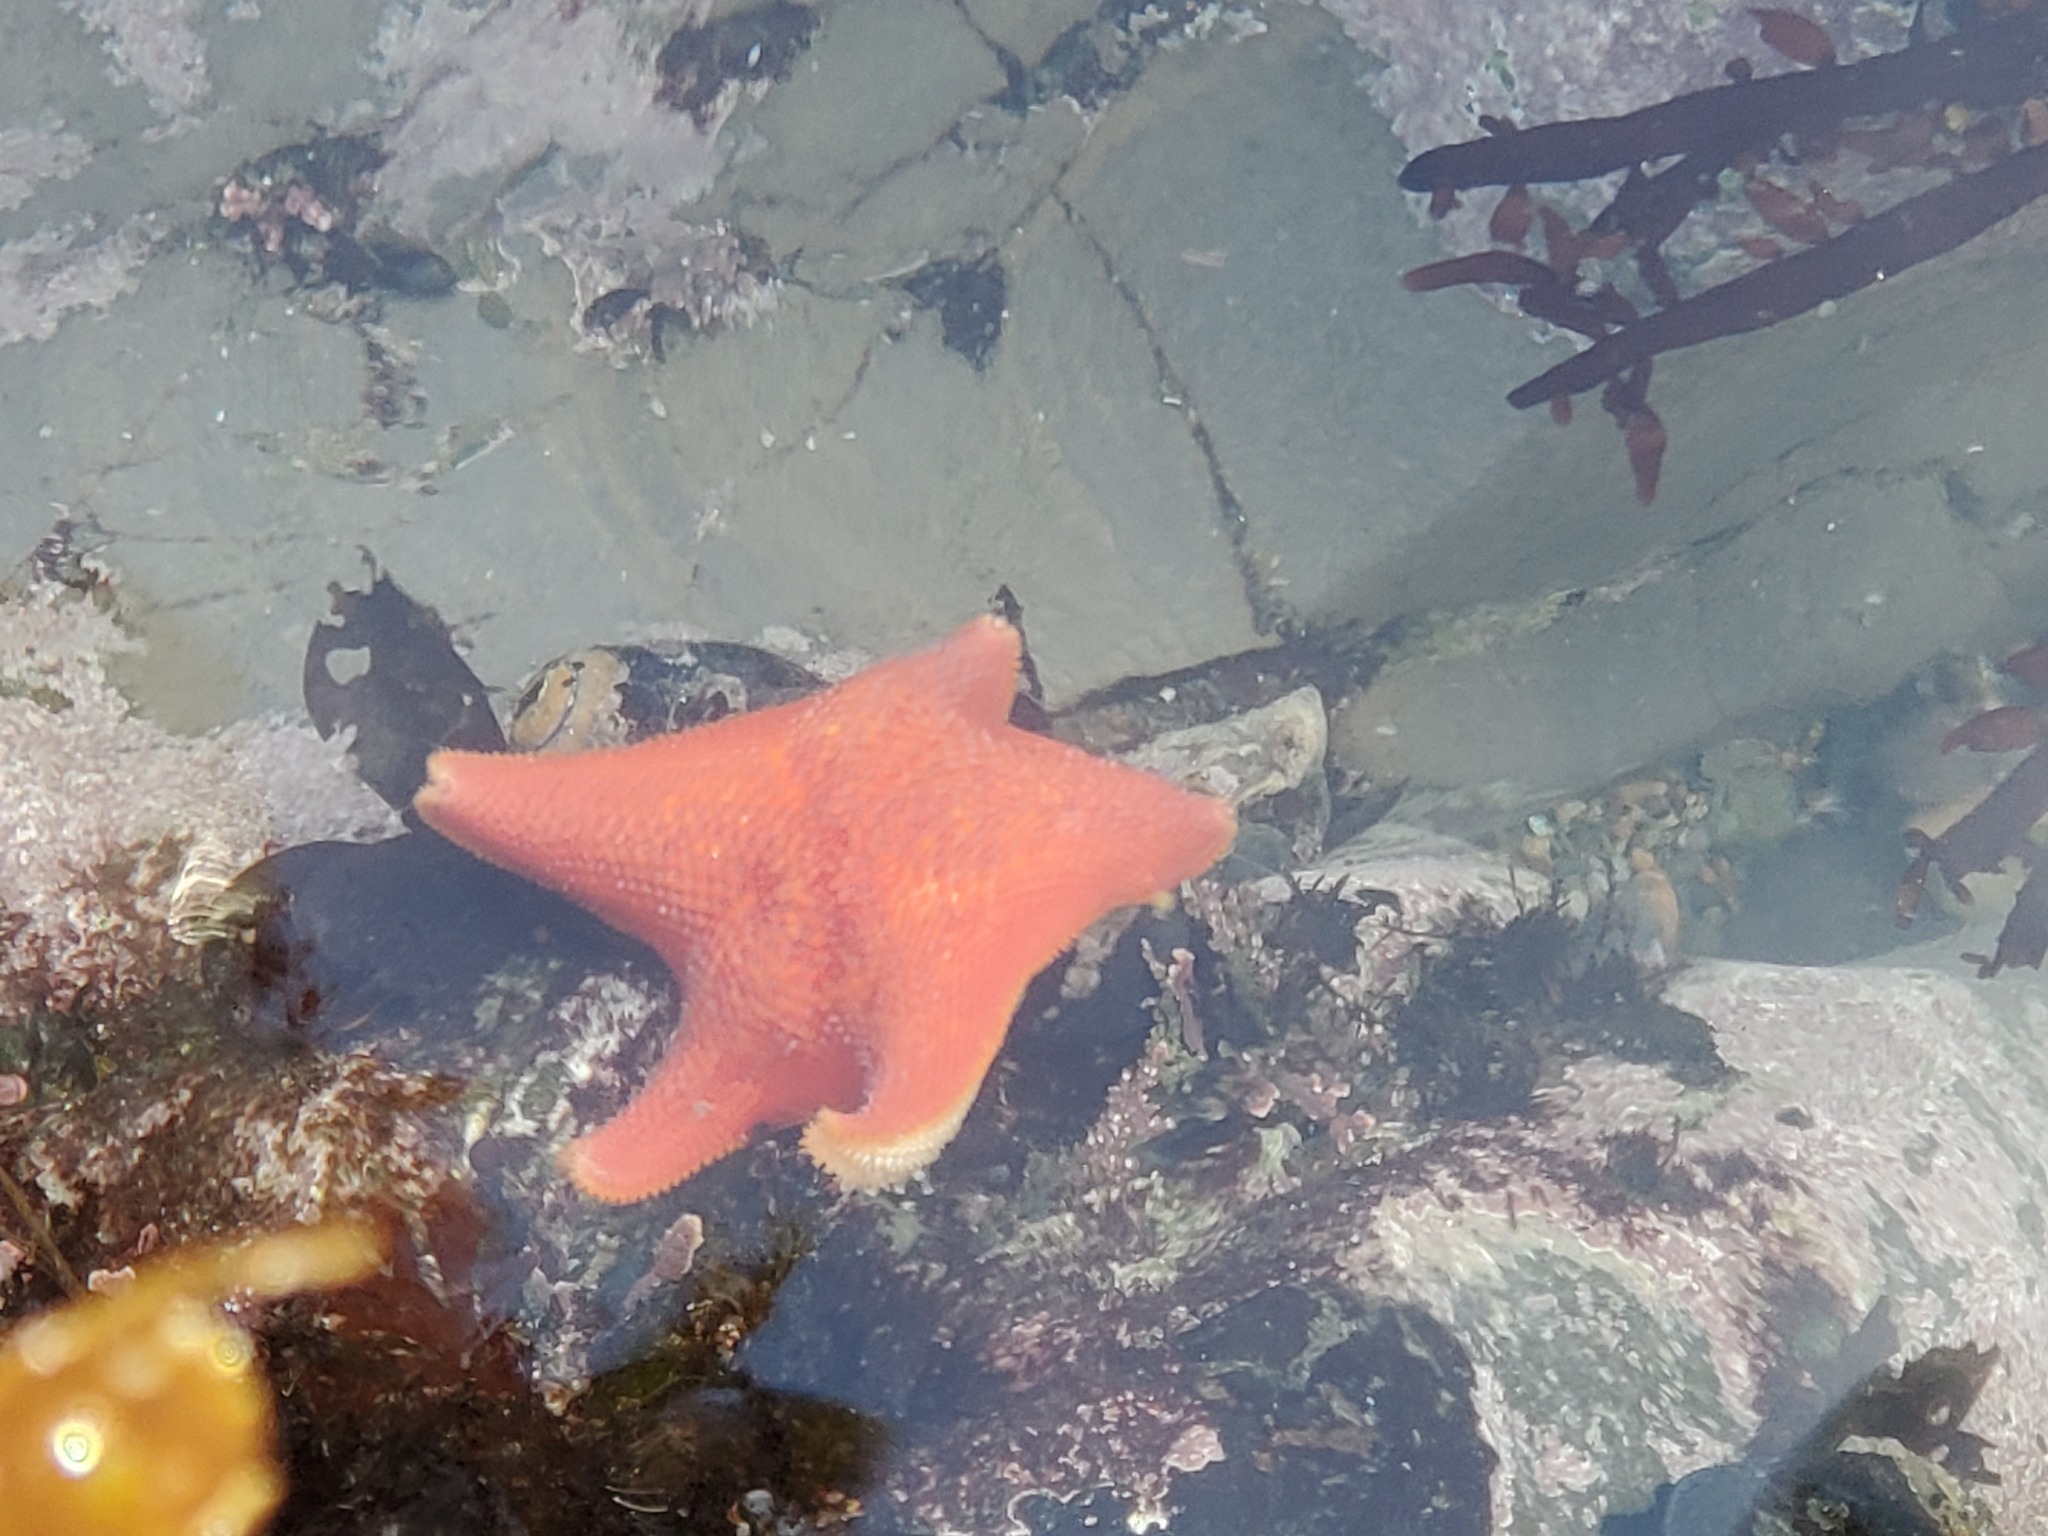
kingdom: Animalia
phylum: Echinodermata
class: Asteroidea
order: Valvatida
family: Asterinidae
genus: Patiria
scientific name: Patiria miniata
